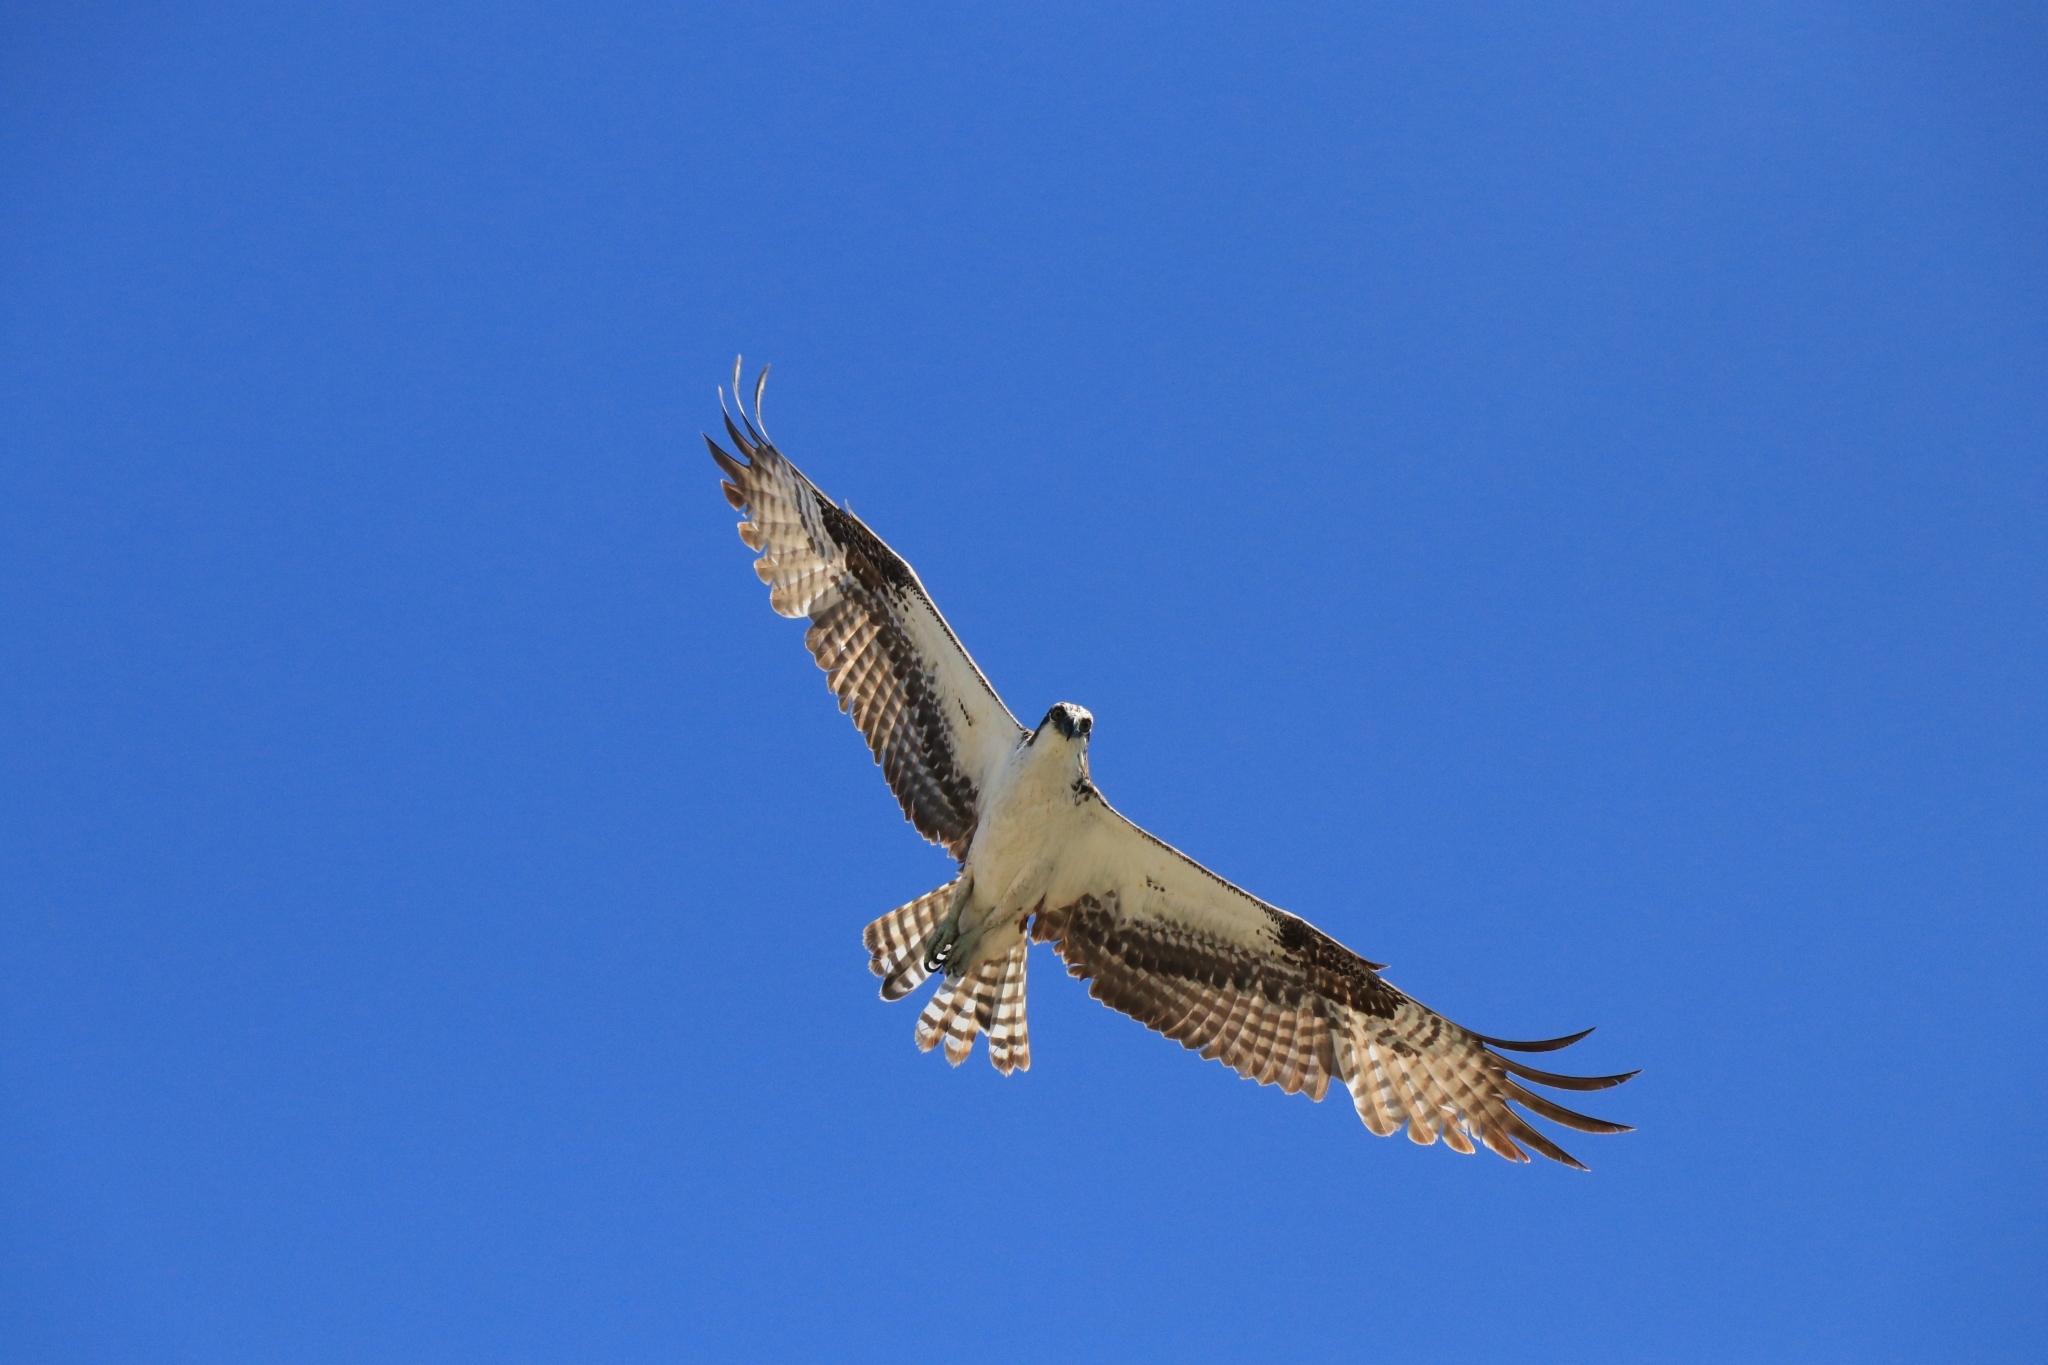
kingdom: Animalia
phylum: Chordata
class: Aves
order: Accipitriformes
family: Pandionidae
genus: Pandion
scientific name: Pandion haliaetus
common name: Osprey
